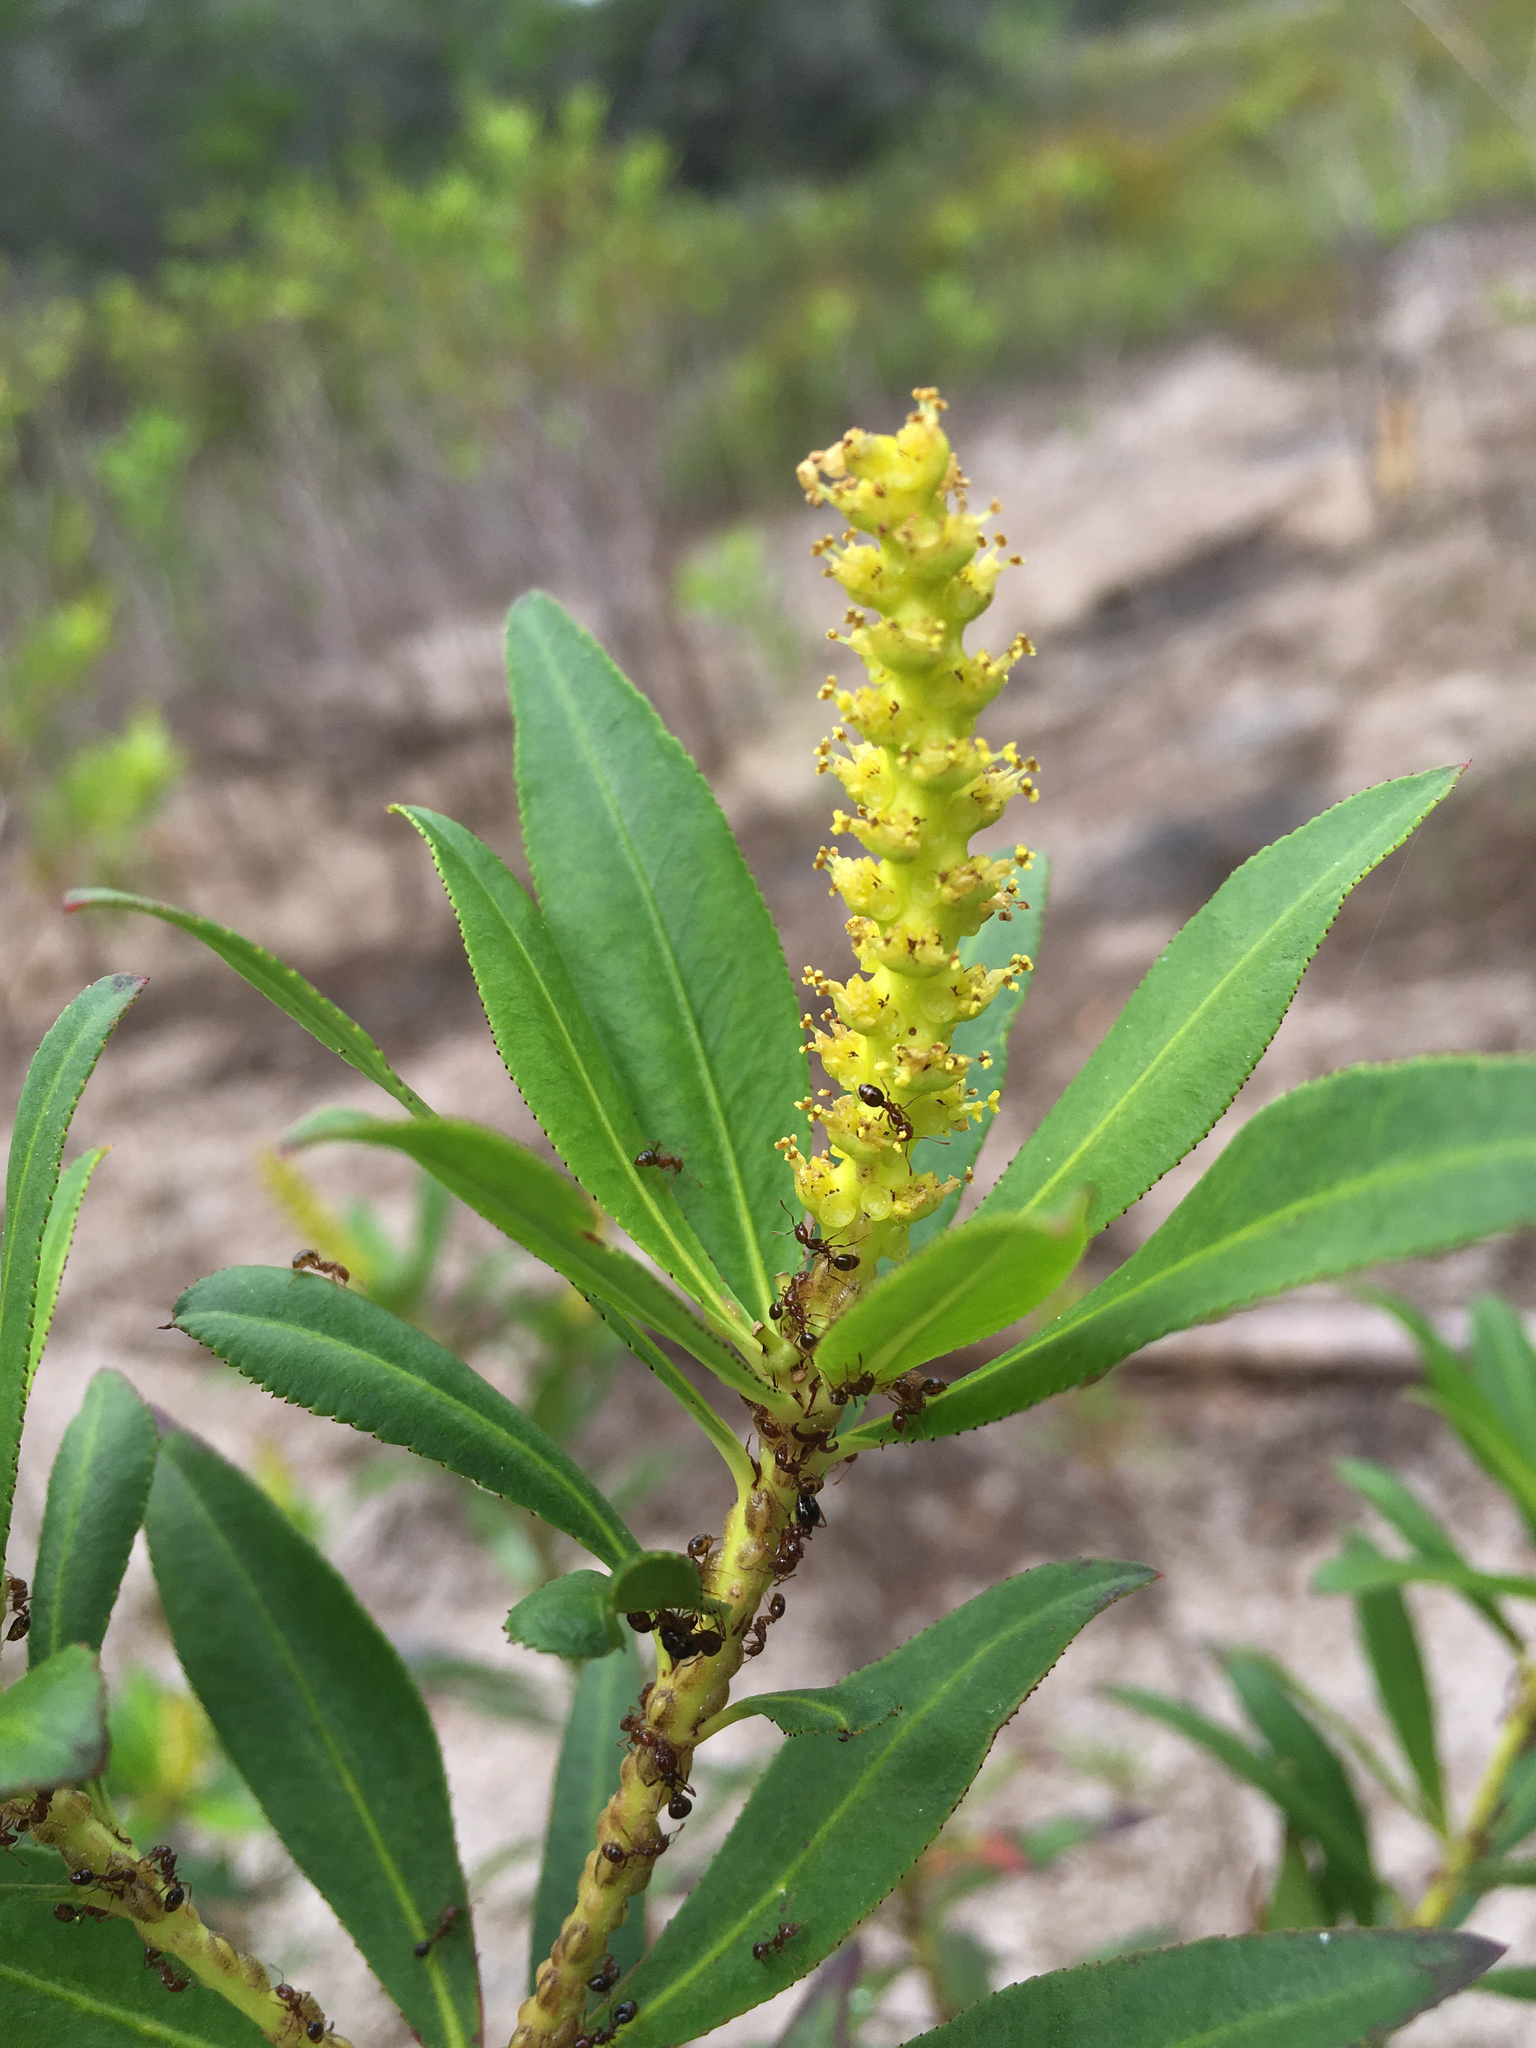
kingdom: Plantae
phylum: Tracheophyta
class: Magnoliopsida
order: Malpighiales
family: Euphorbiaceae
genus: Stillingia
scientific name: Stillingia aquatica
